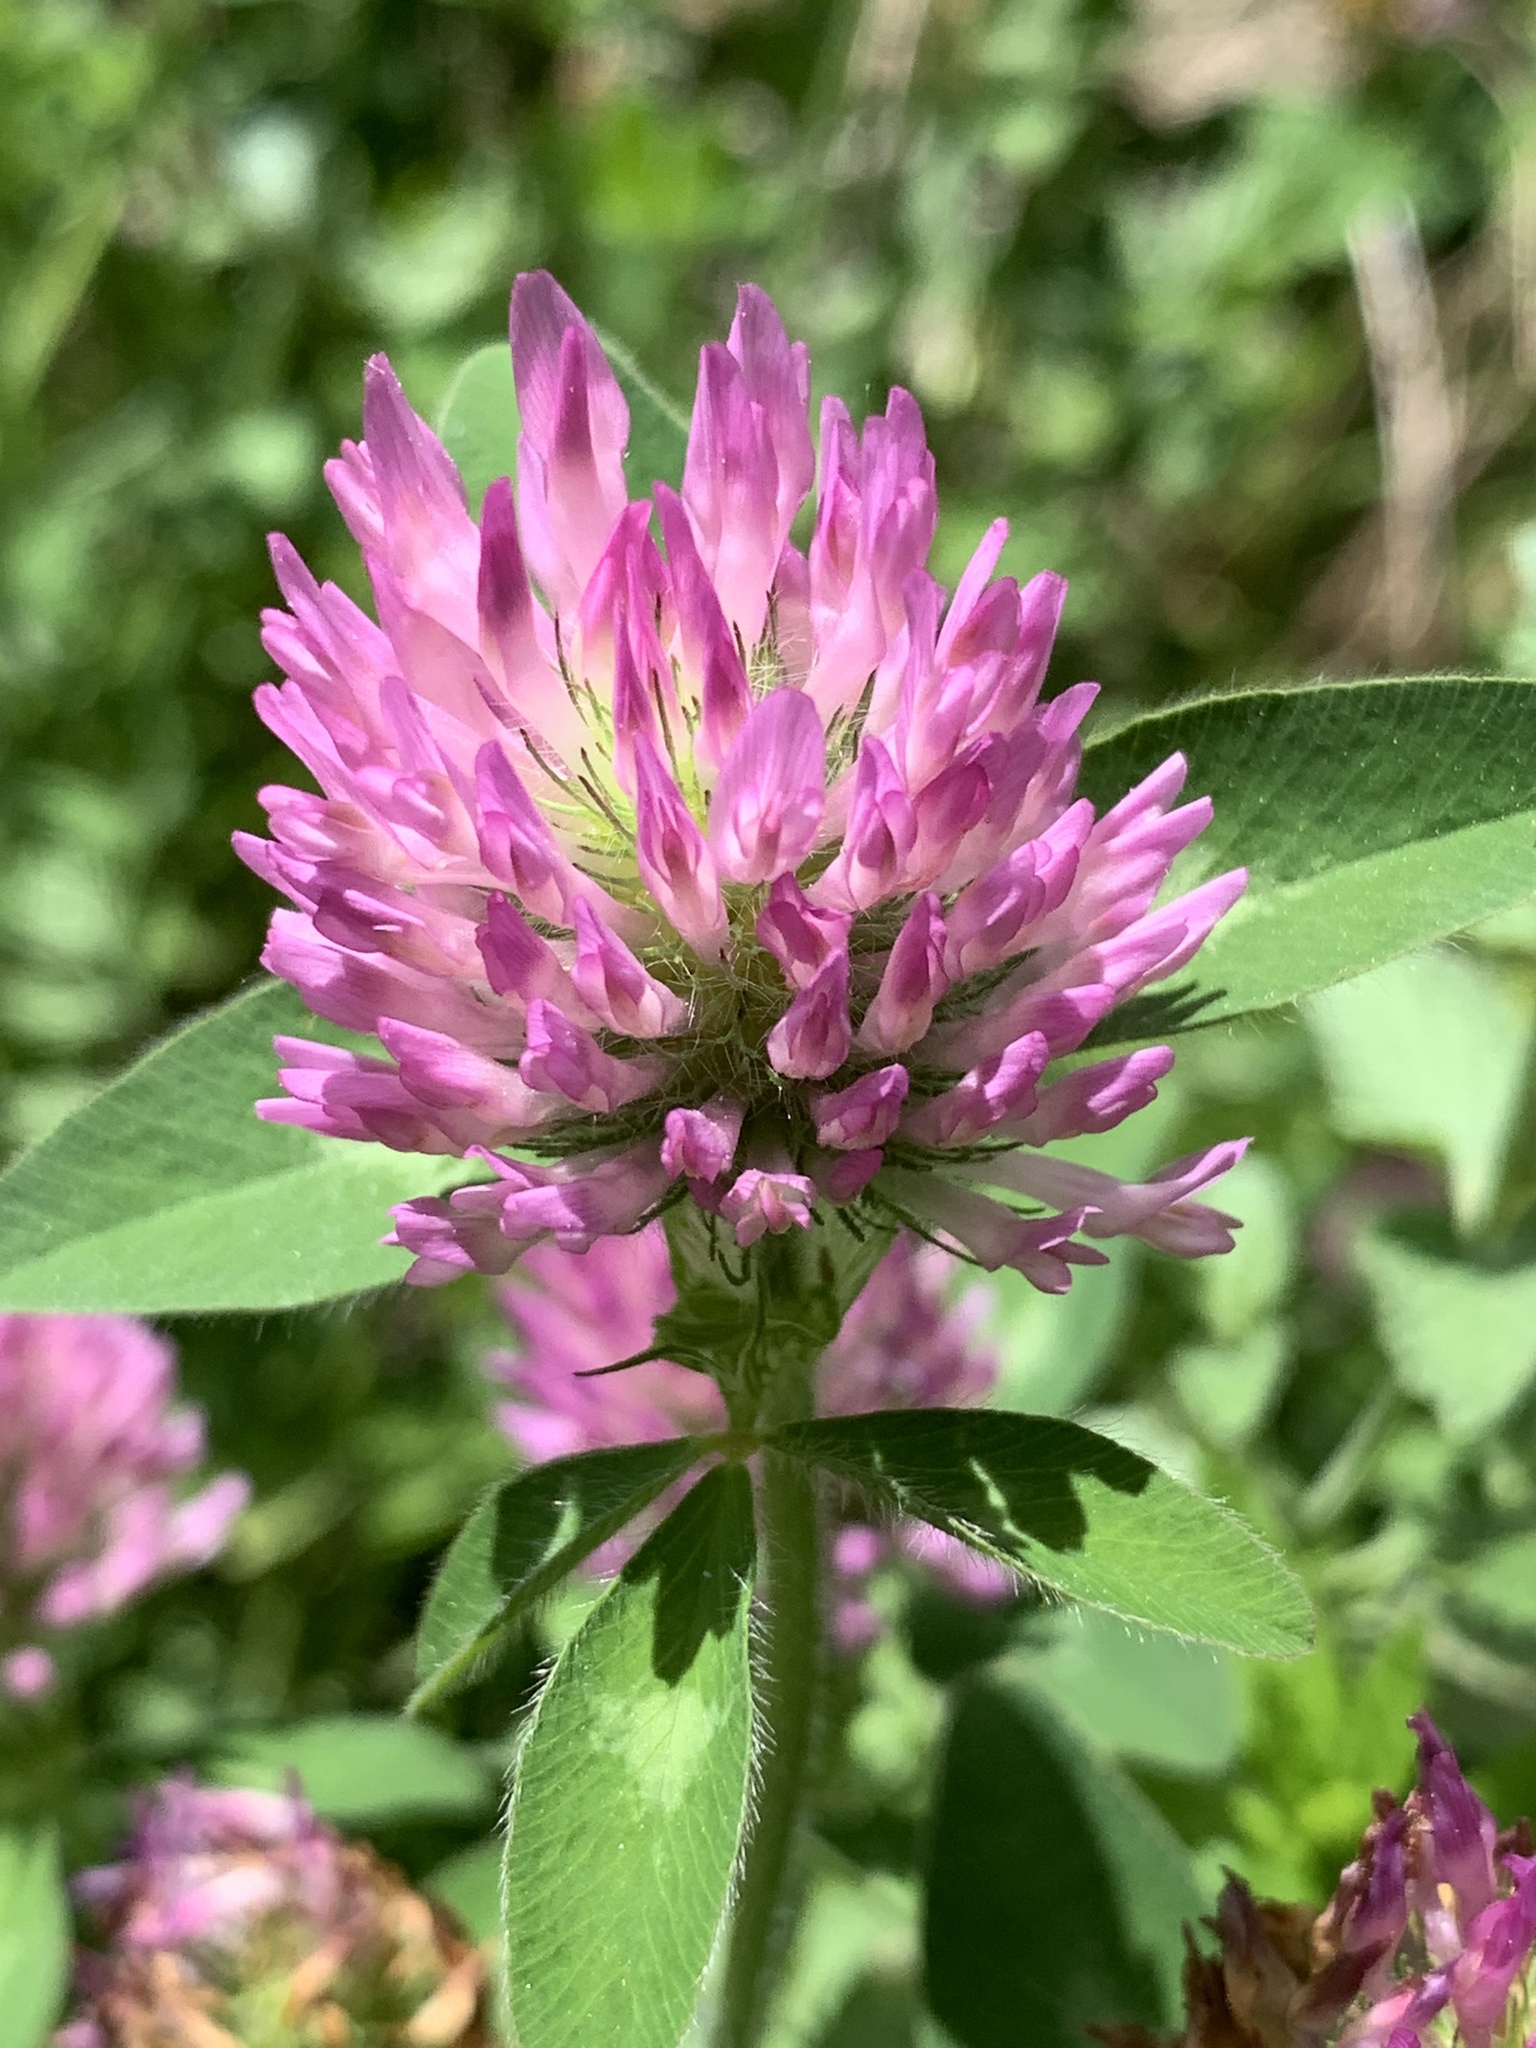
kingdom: Plantae
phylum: Tracheophyta
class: Magnoliopsida
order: Fabales
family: Fabaceae
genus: Trifolium
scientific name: Trifolium pratense
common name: Red clover
